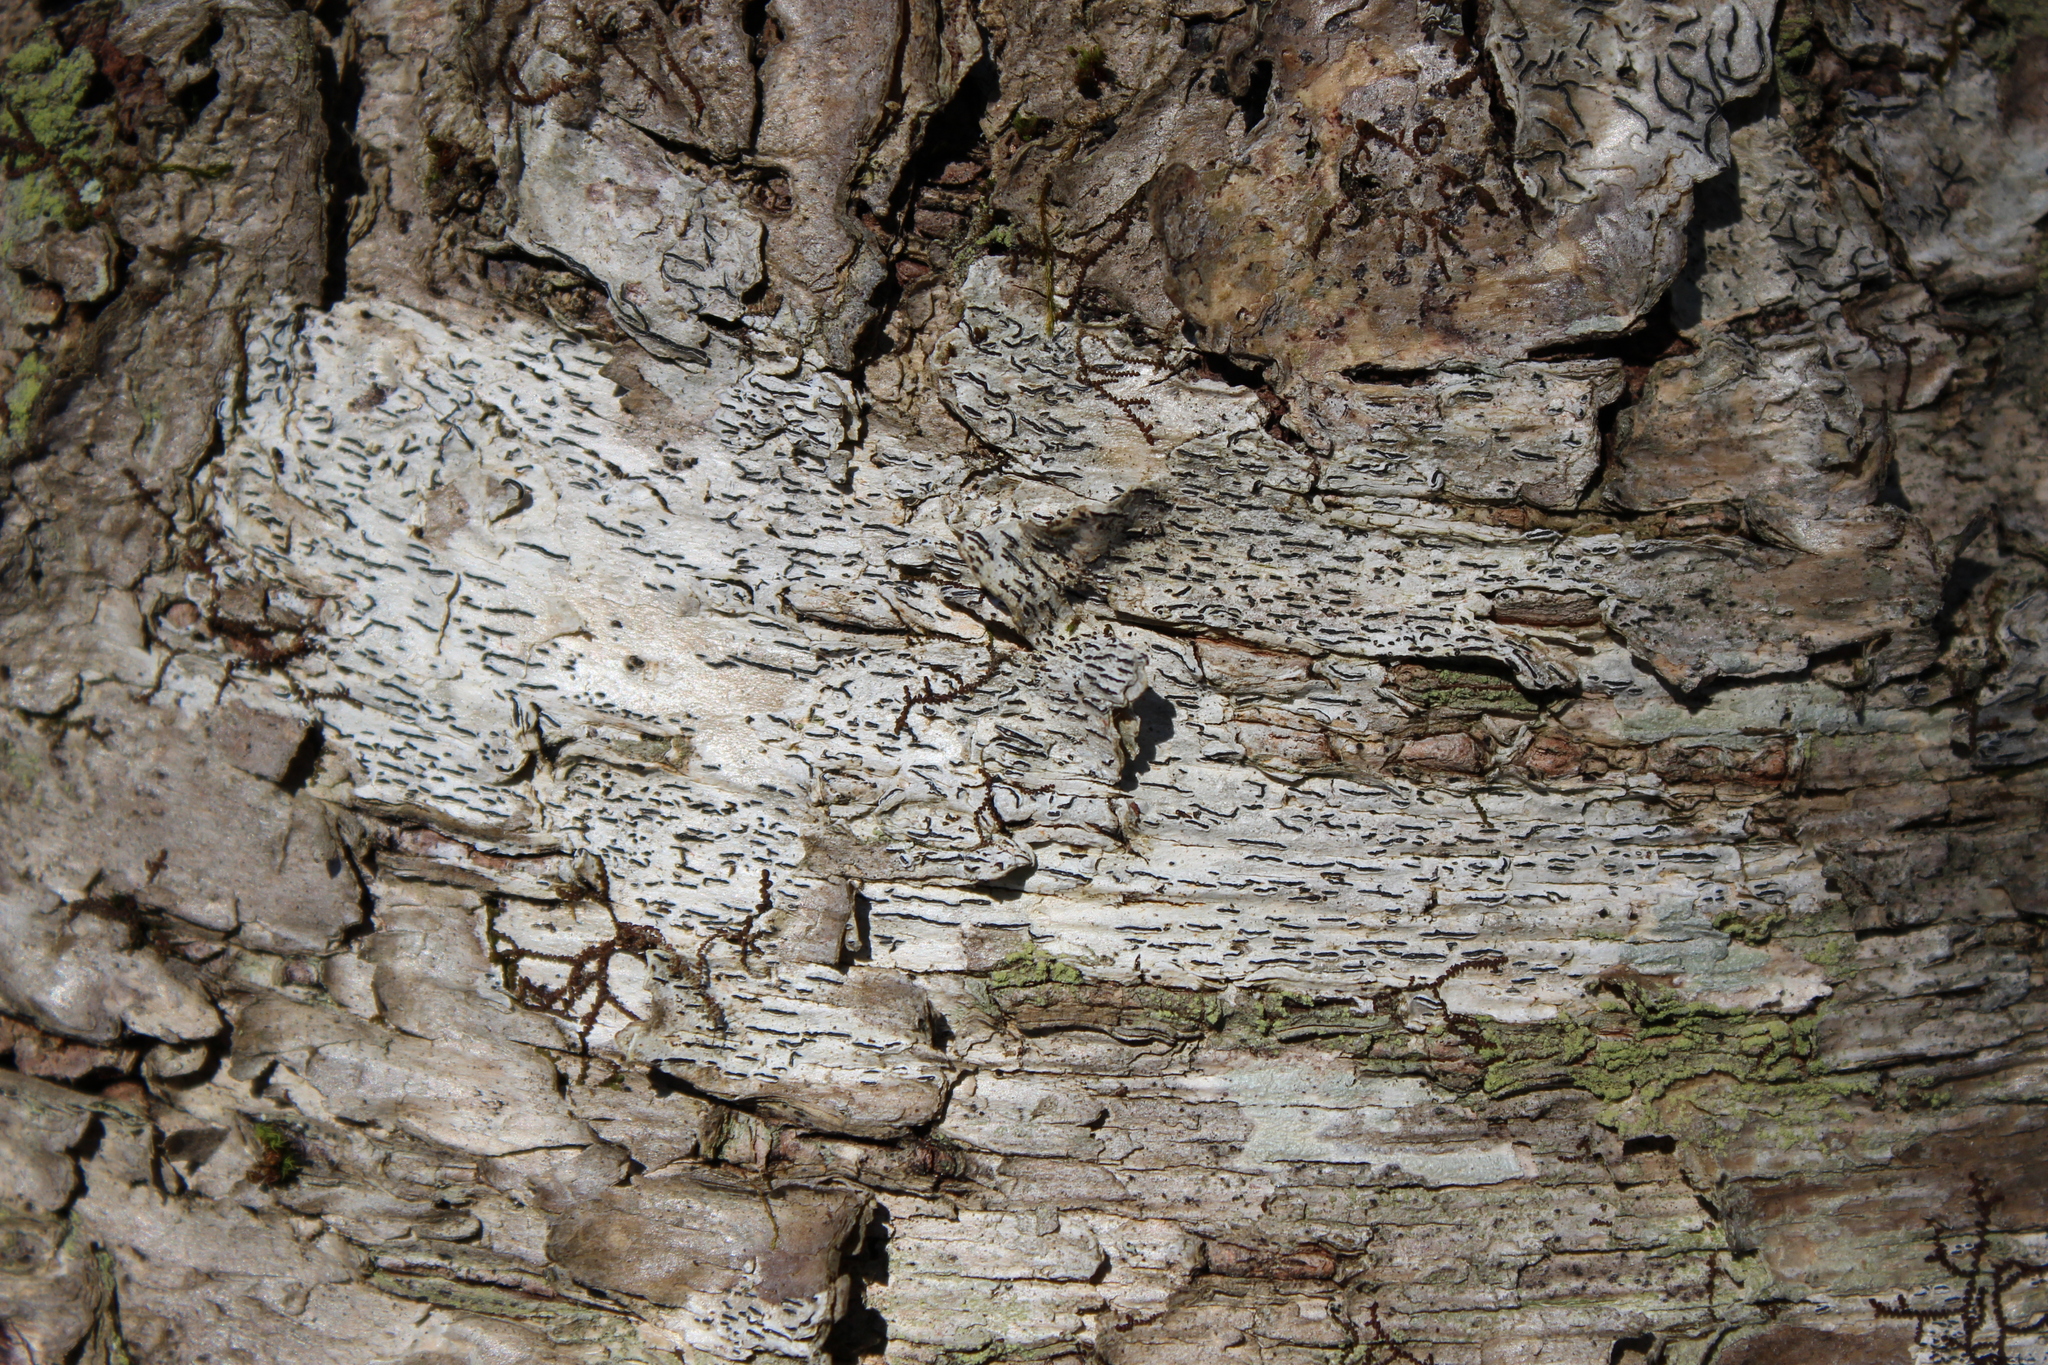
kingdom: Fungi
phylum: Ascomycota
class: Lecanoromycetes
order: Ostropales
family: Graphidaceae
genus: Graphis
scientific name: Graphis scripta
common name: Script lichen
